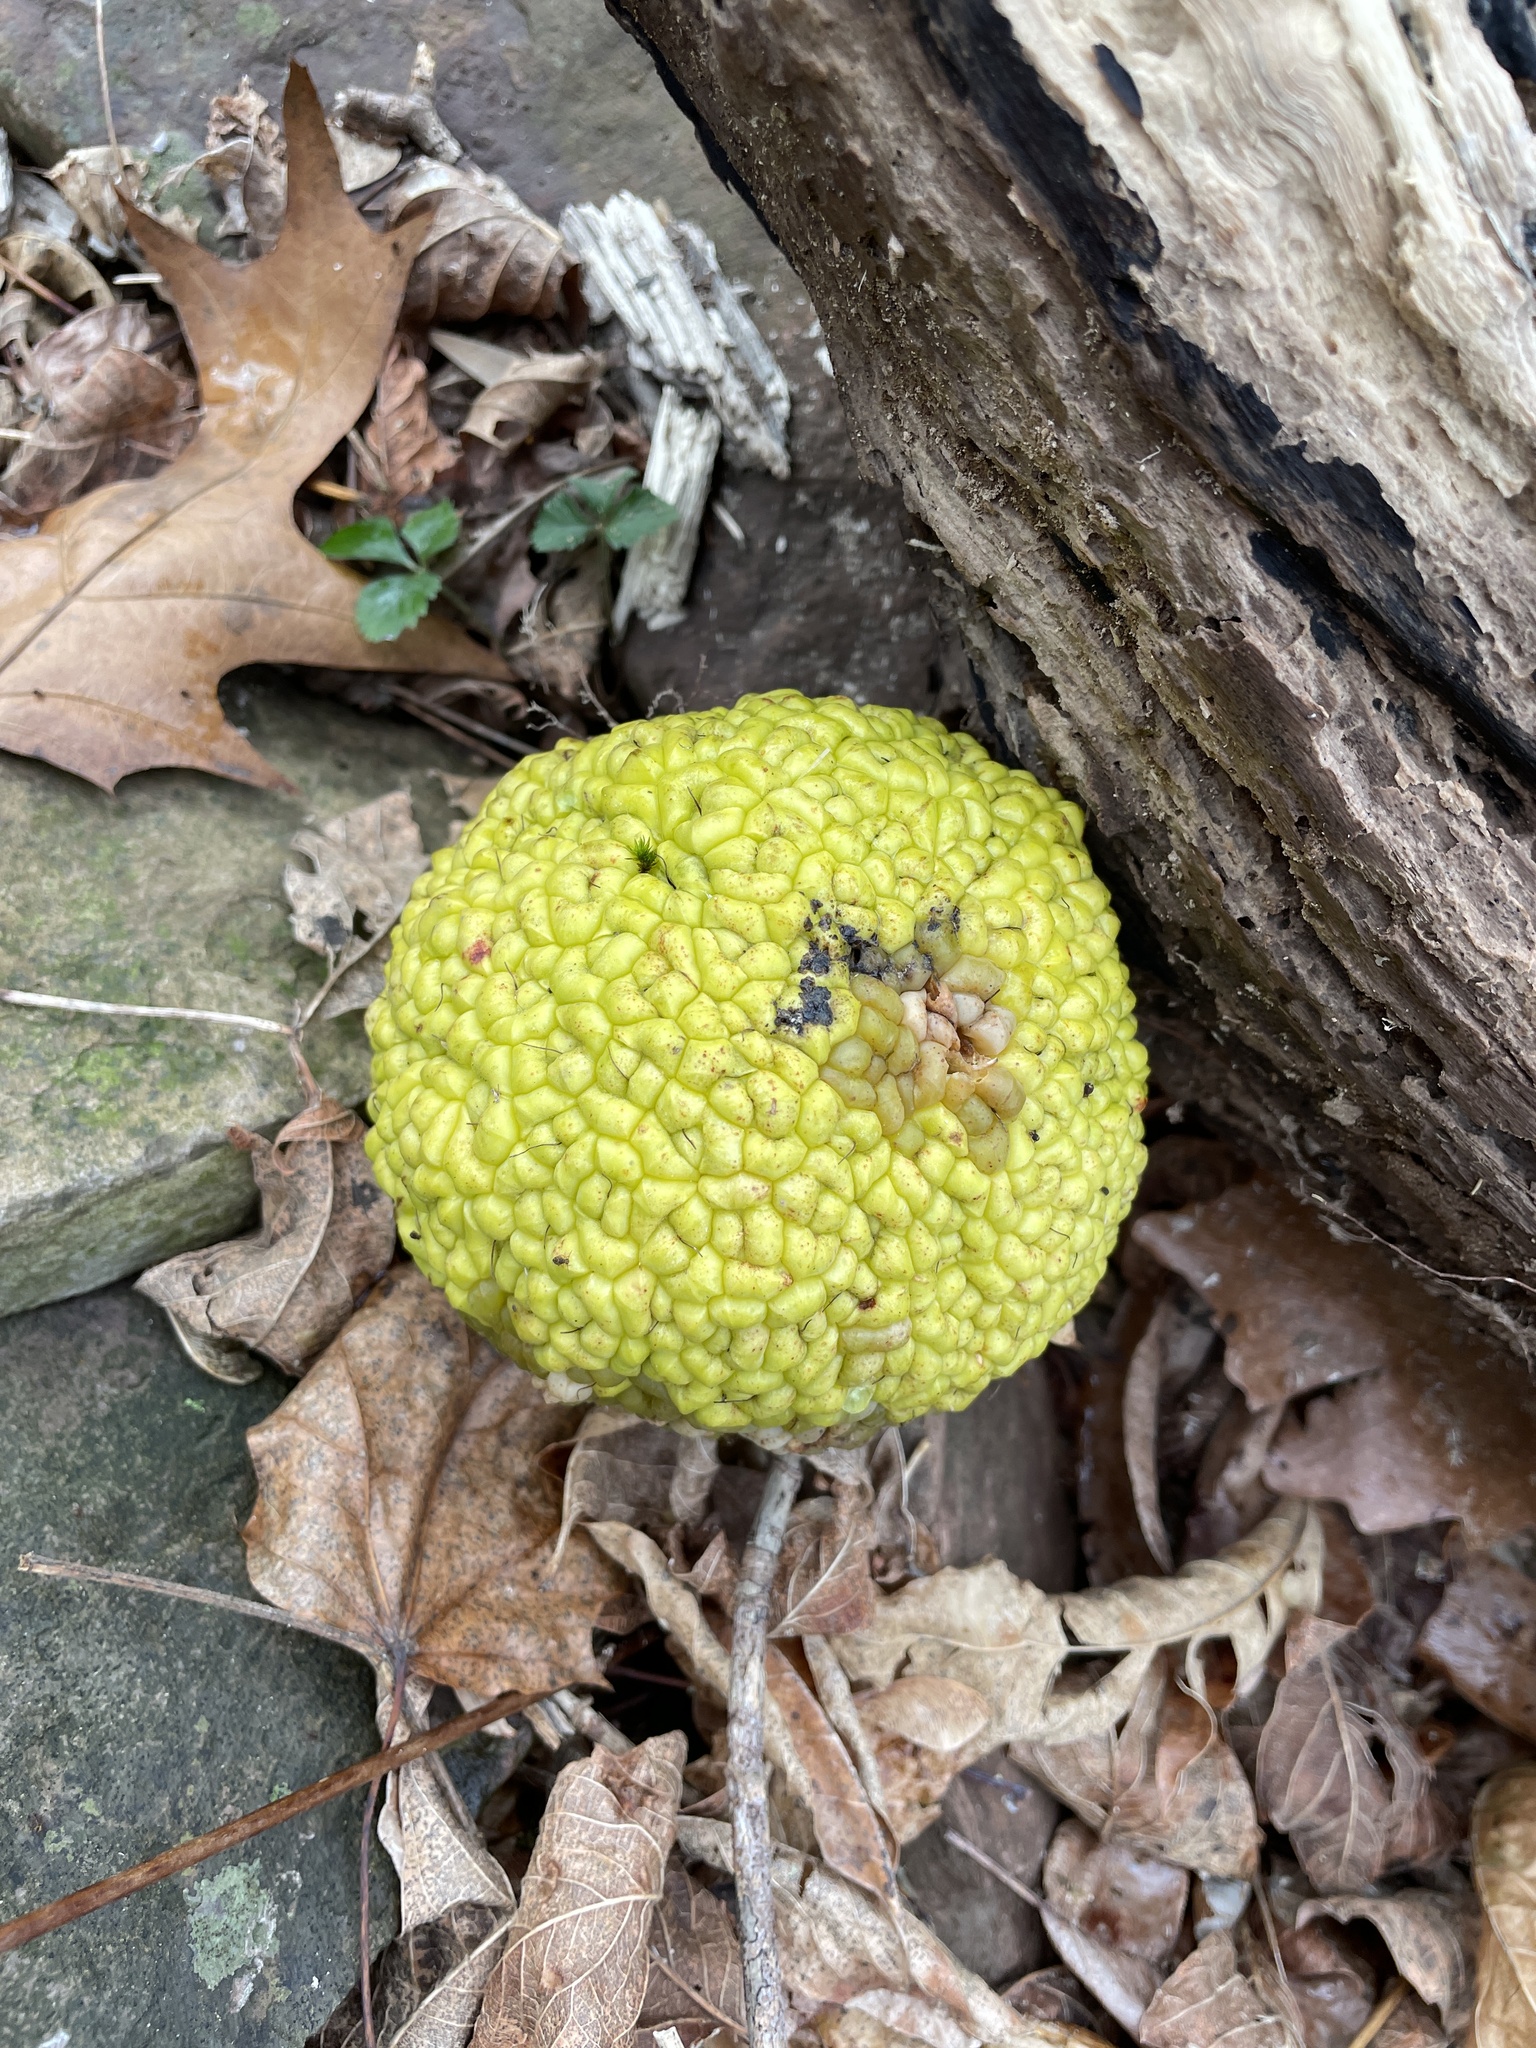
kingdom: Plantae
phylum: Tracheophyta
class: Magnoliopsida
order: Rosales
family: Moraceae
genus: Maclura
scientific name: Maclura pomifera
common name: Osage-orange
